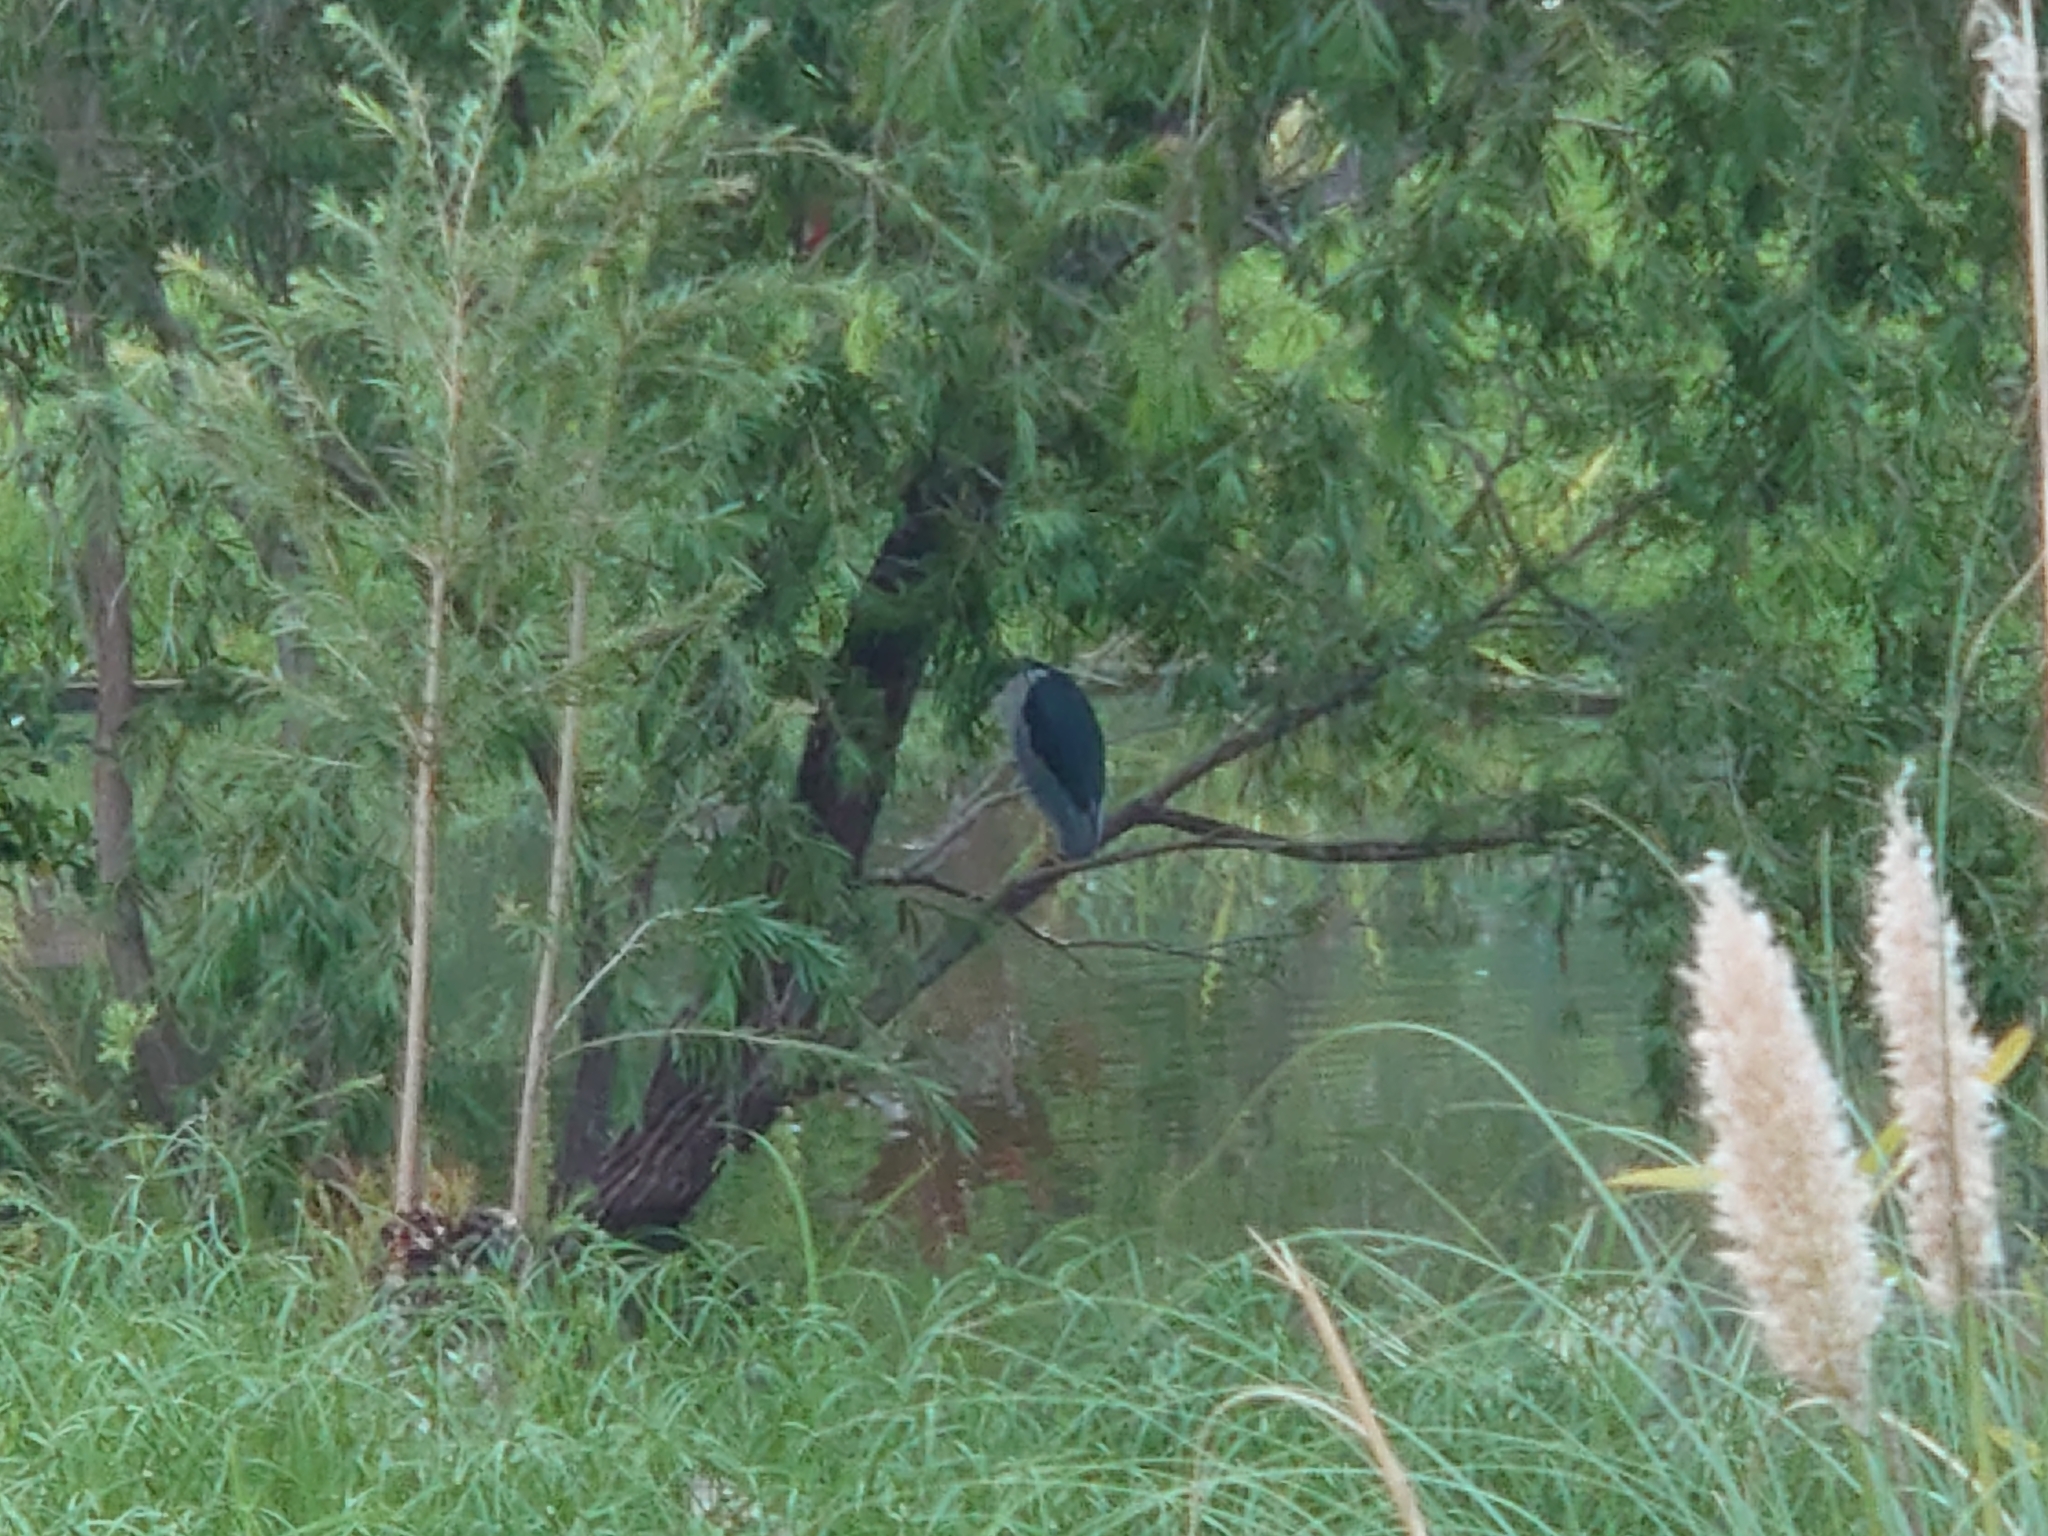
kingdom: Animalia
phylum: Chordata
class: Aves
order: Pelecaniformes
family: Ardeidae
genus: Nycticorax
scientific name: Nycticorax nycticorax
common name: Black-crowned night heron
